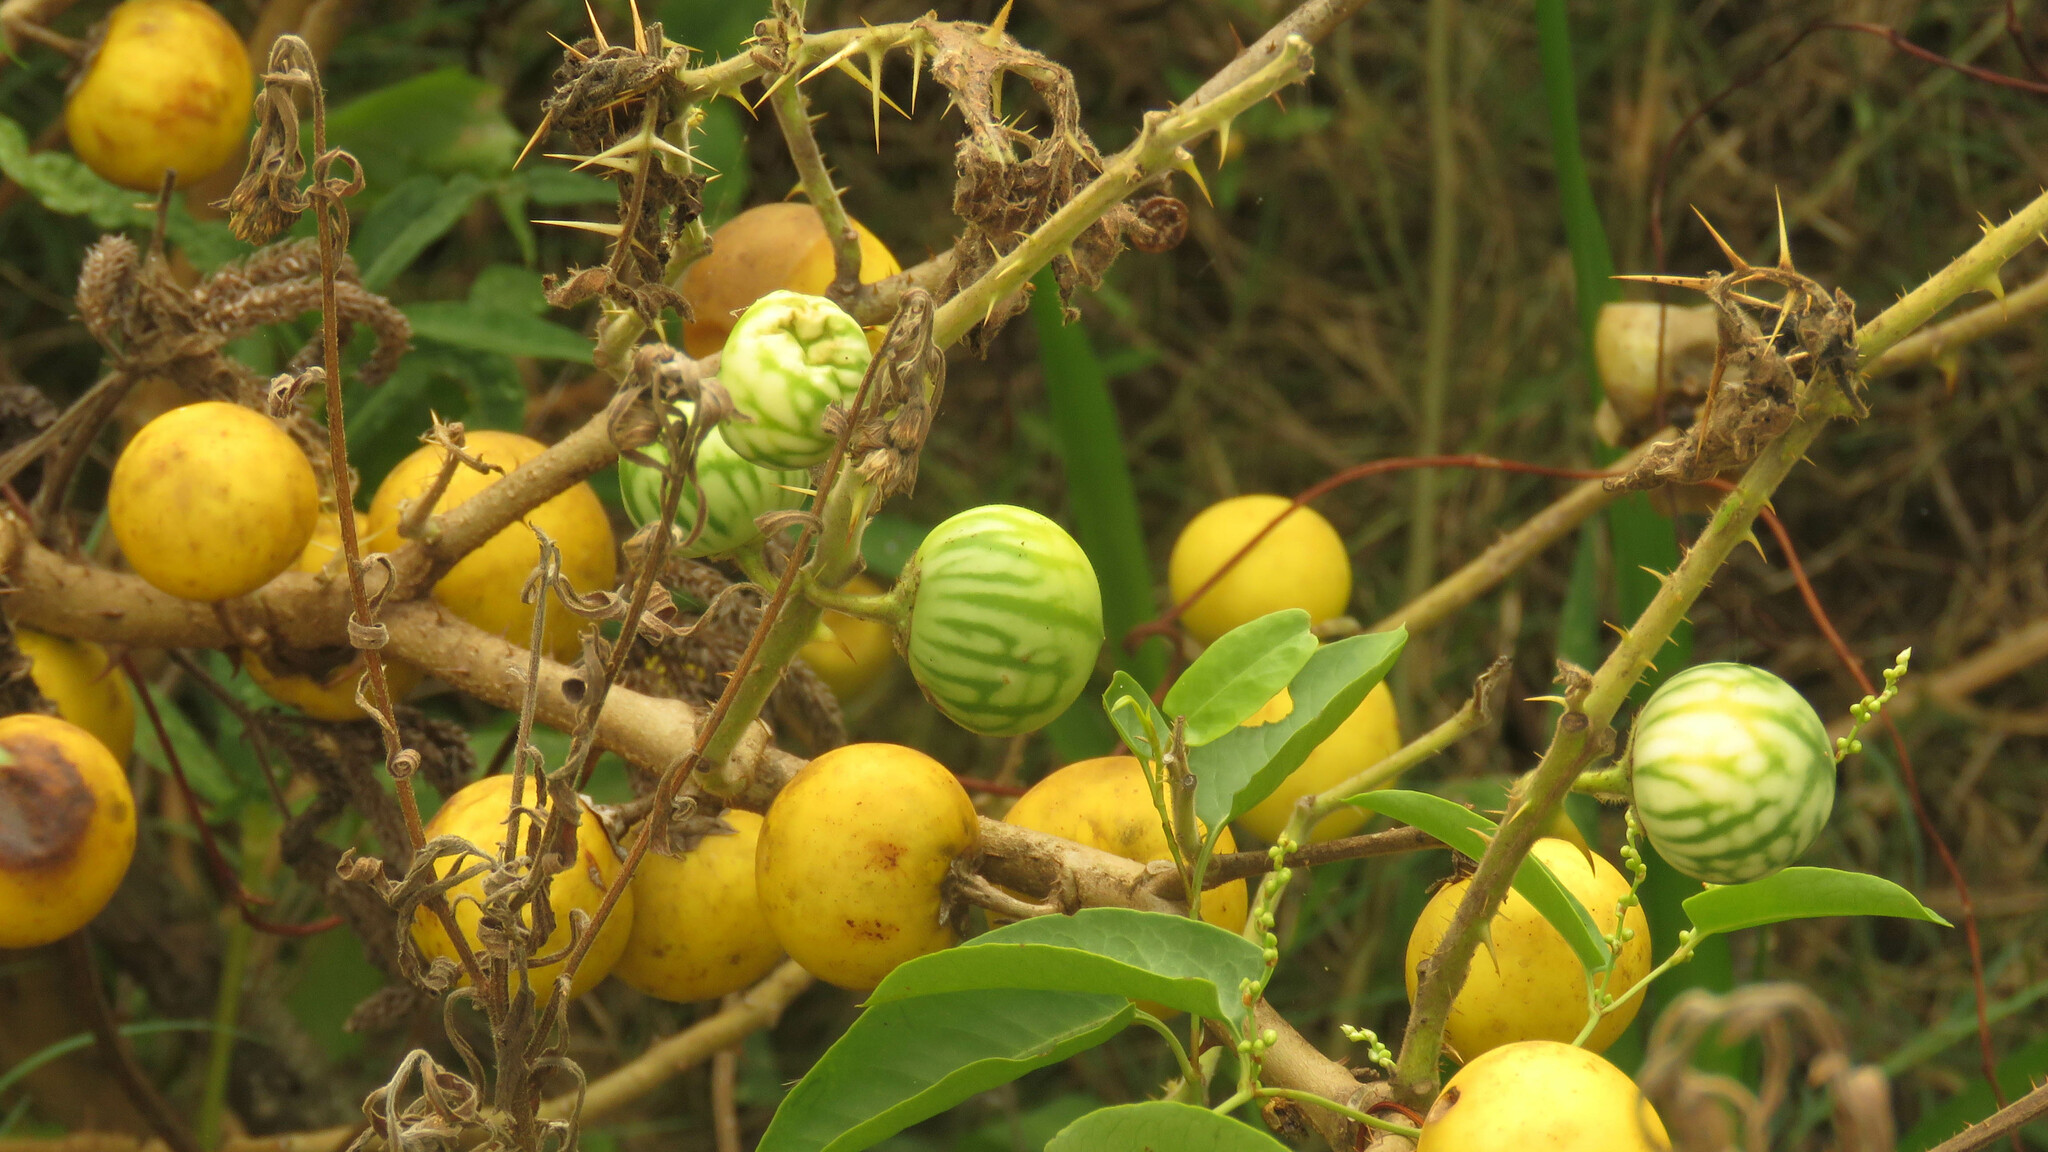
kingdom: Plantae
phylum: Tracheophyta
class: Magnoliopsida
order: Solanales
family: Solanaceae
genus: Solanum
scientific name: Solanum viarum
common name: Tropical soda apple
